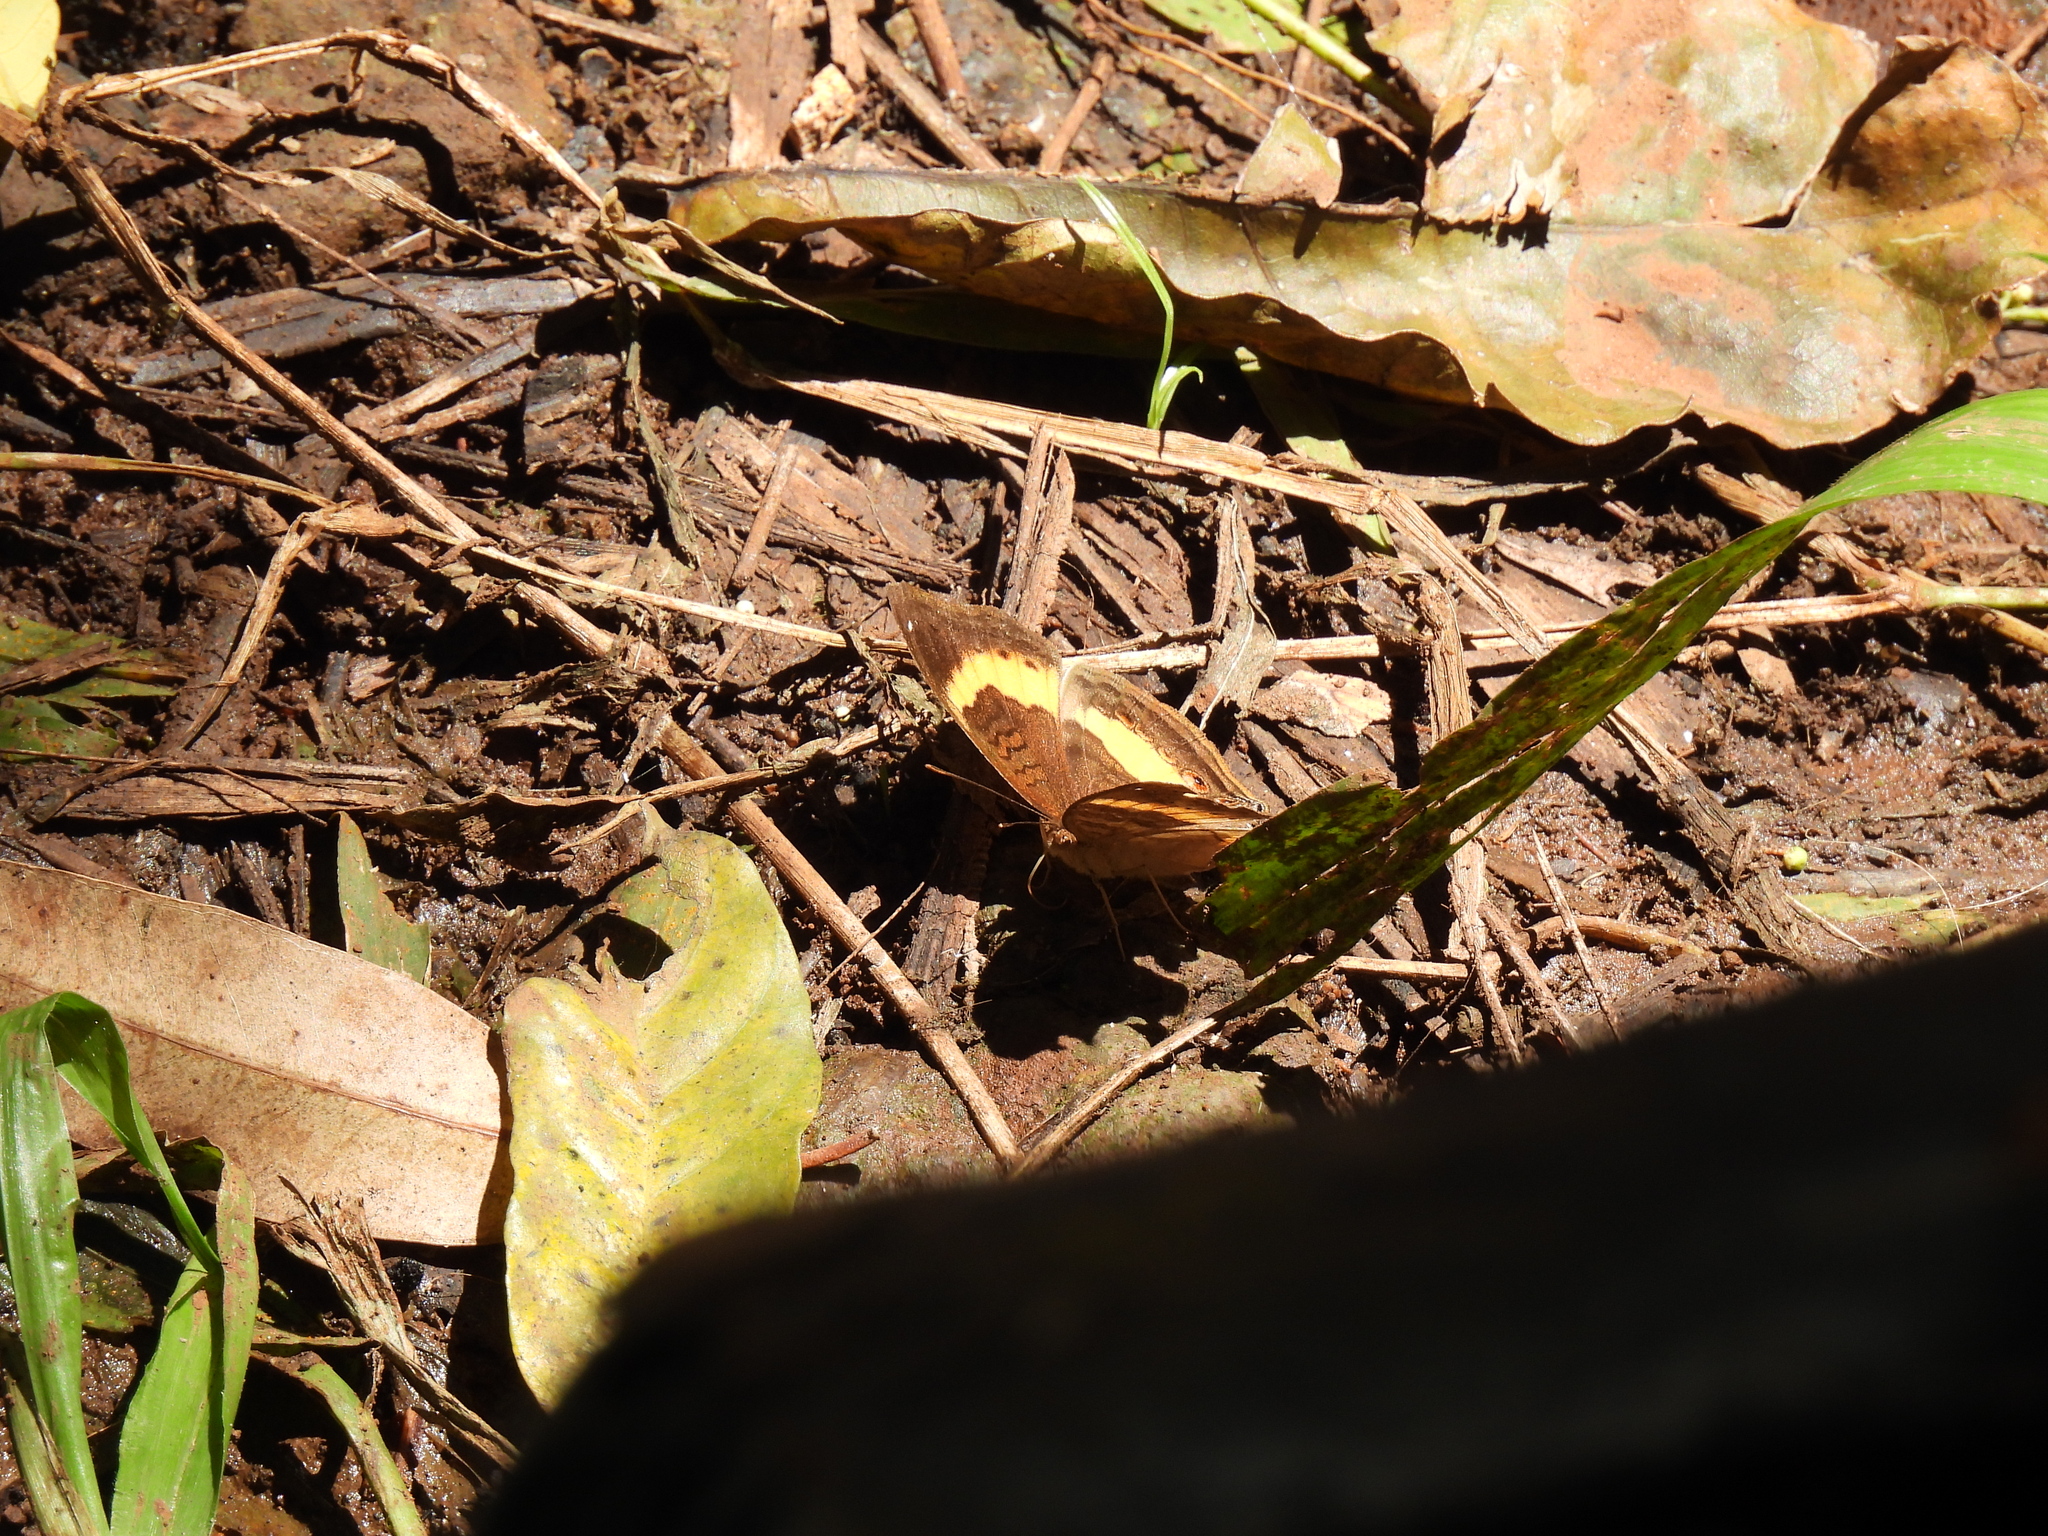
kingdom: Animalia
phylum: Arthropoda
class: Insecta
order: Lepidoptera
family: Nymphalidae
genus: Junonia
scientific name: Junonia terea
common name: Soldier pansy
